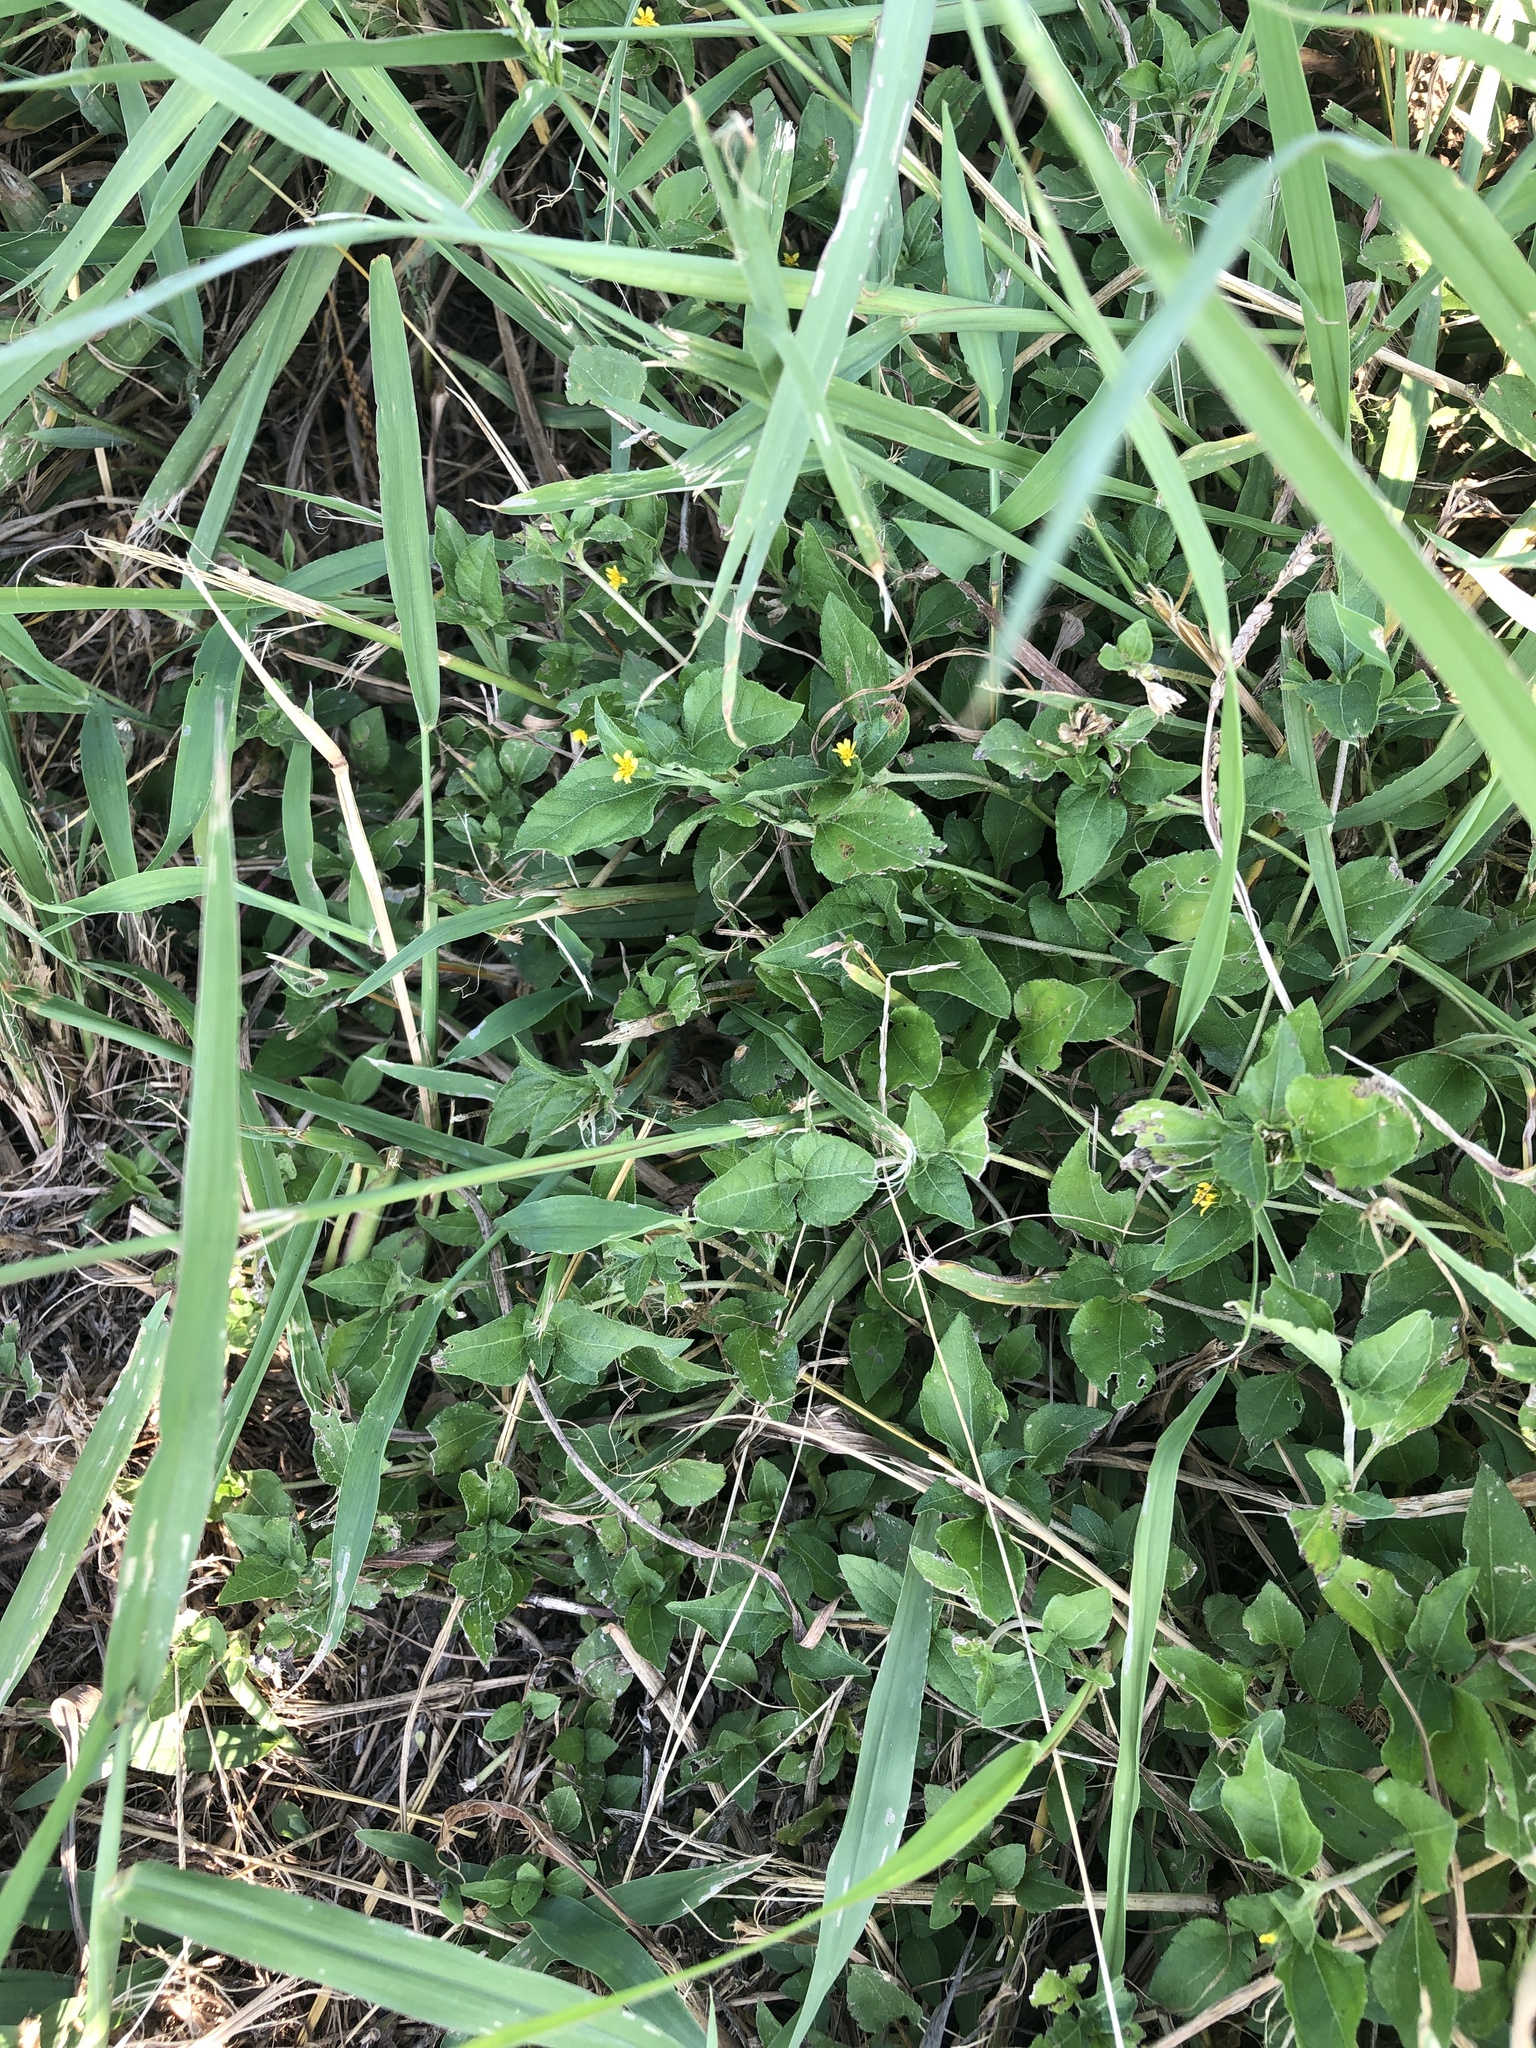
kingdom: Plantae
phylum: Tracheophyta
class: Magnoliopsida
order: Asterales
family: Asteraceae
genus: Calyptocarpus
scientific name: Calyptocarpus vialis
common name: Straggler daisy
